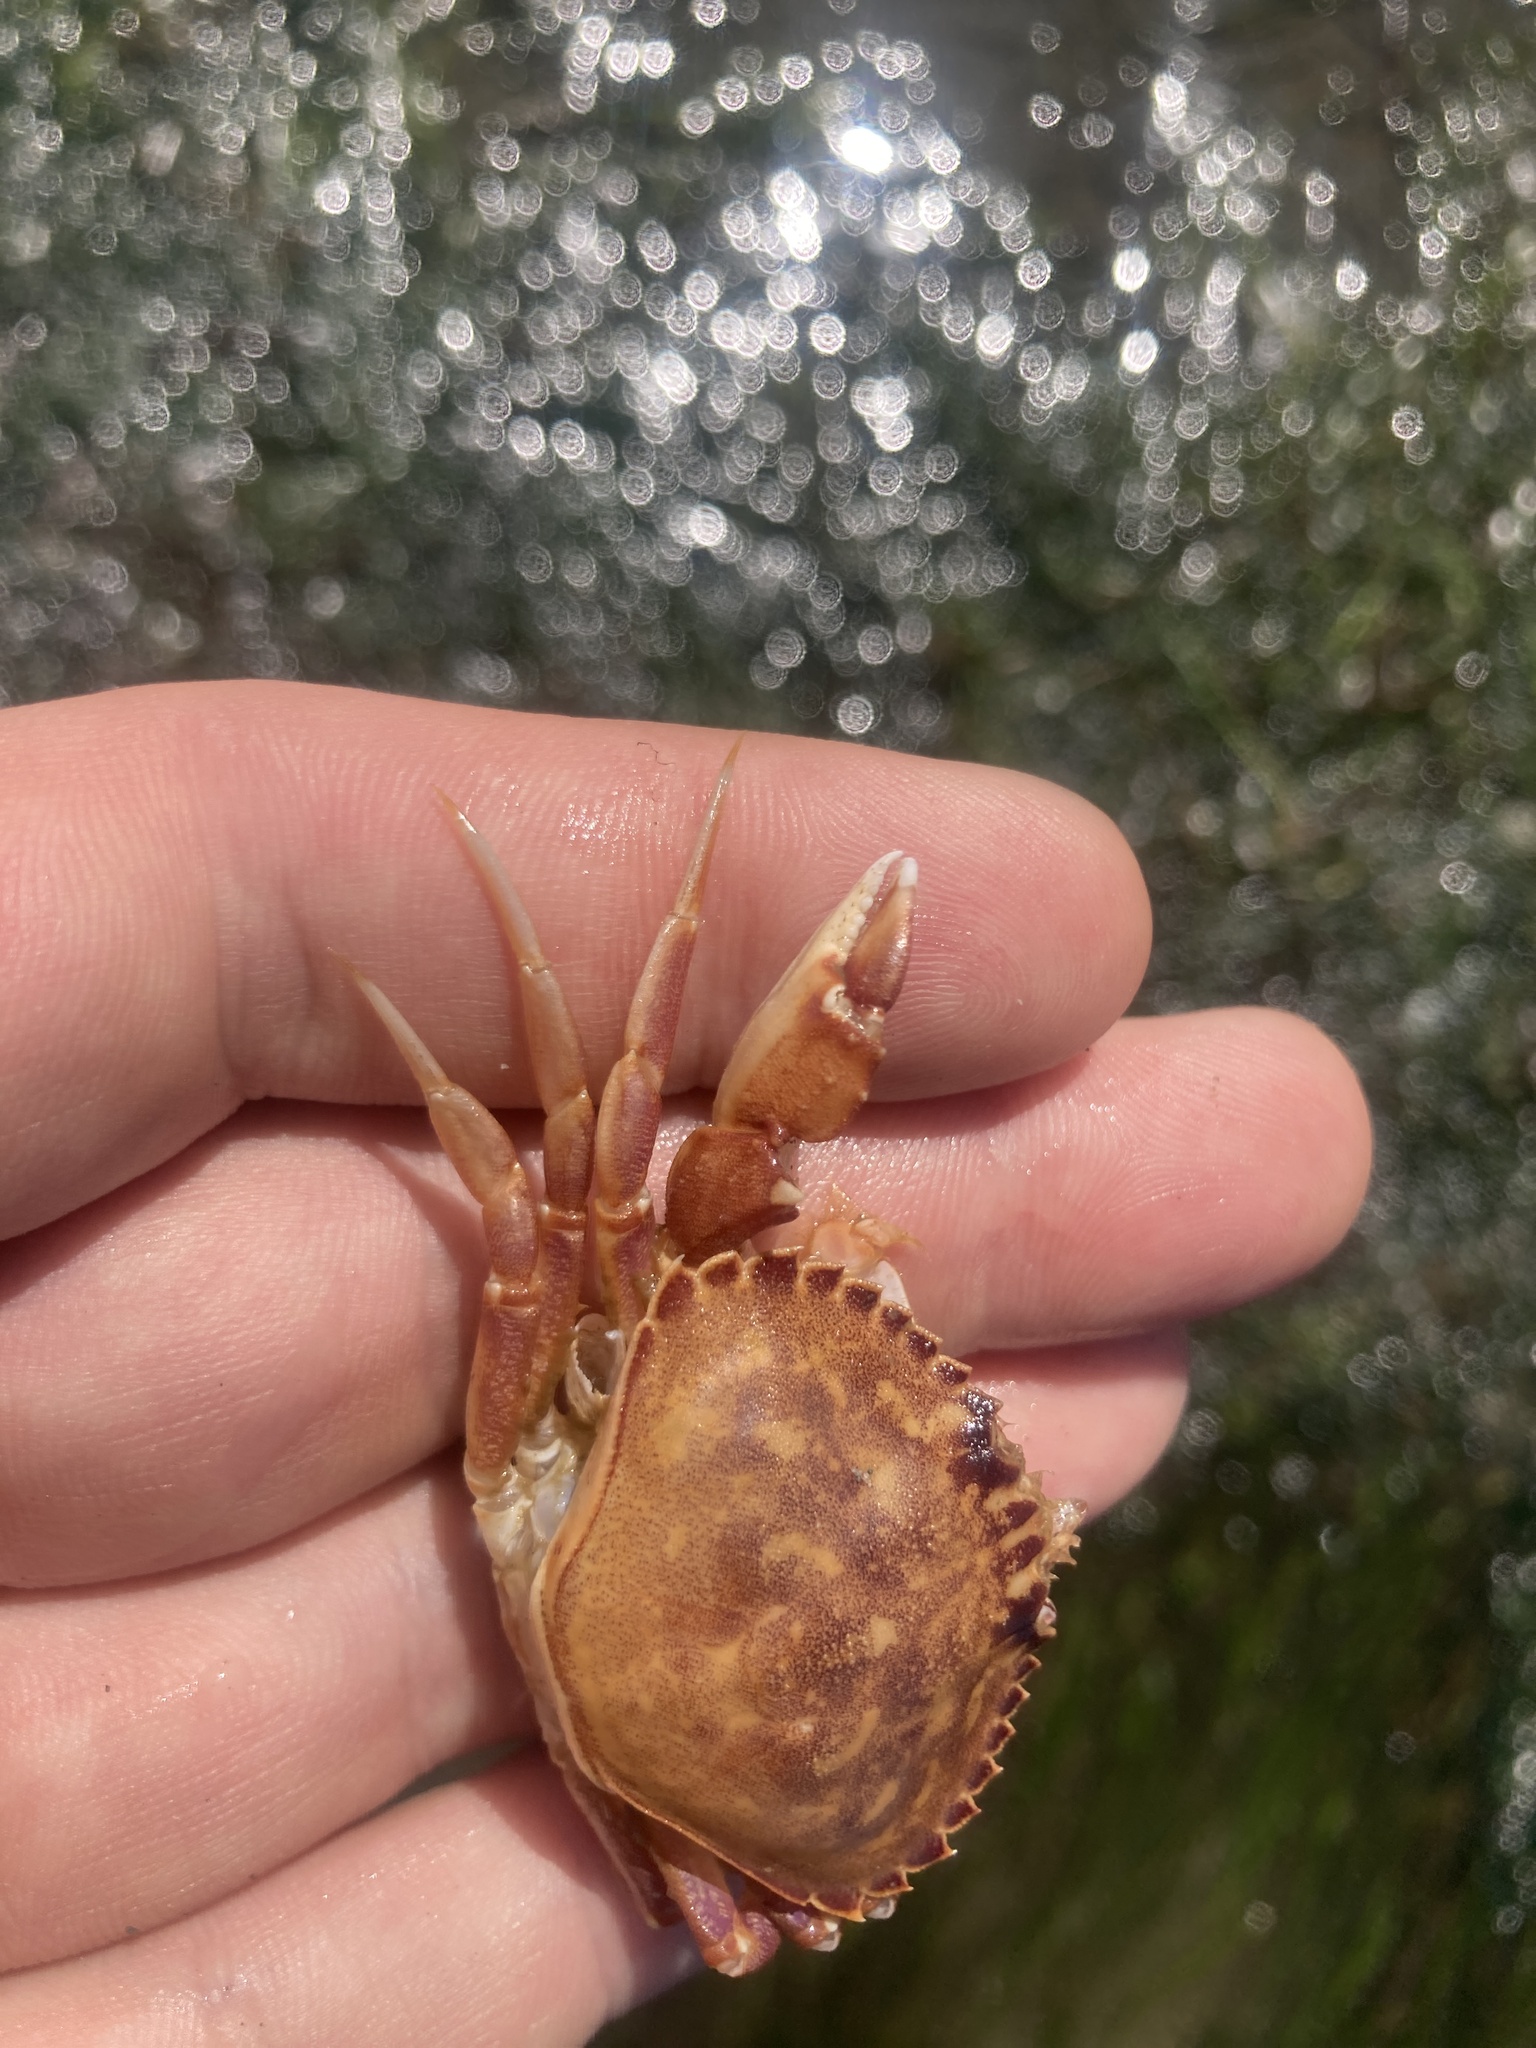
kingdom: Animalia
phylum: Arthropoda
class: Malacostraca
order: Decapoda
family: Cancridae
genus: Metacarcinus
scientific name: Metacarcinus gracilis
